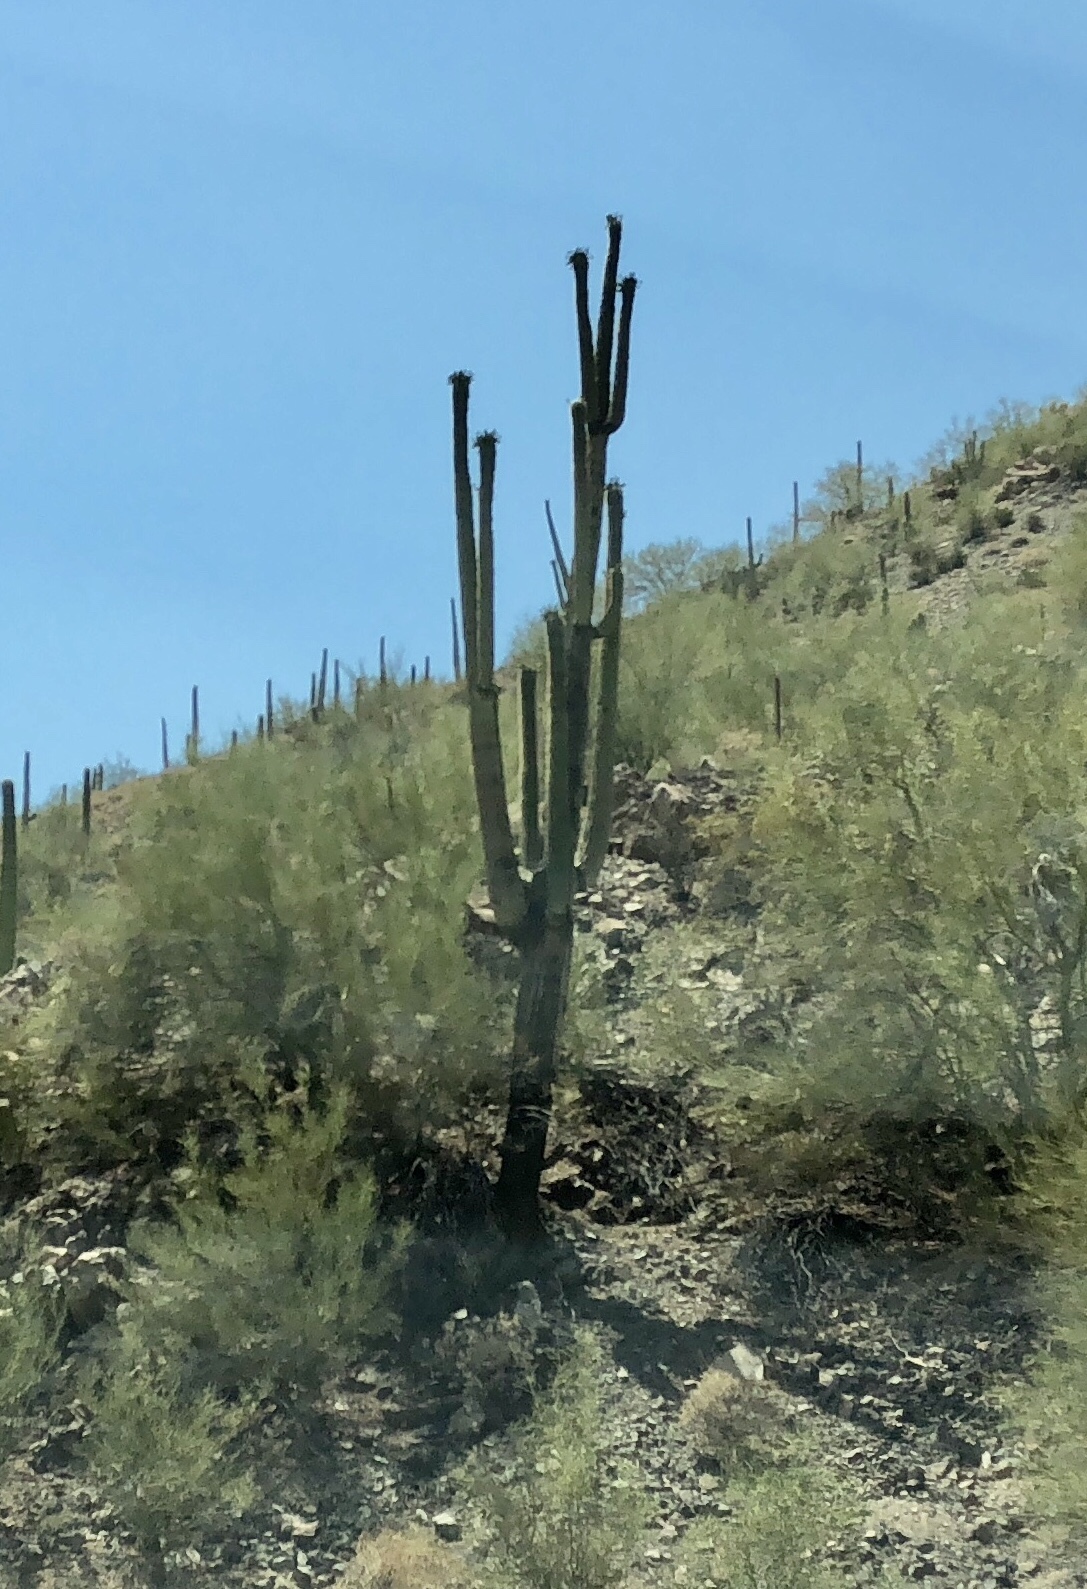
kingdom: Plantae
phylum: Tracheophyta
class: Magnoliopsida
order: Caryophyllales
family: Cactaceae
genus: Carnegiea
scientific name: Carnegiea gigantea
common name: Saguaro
